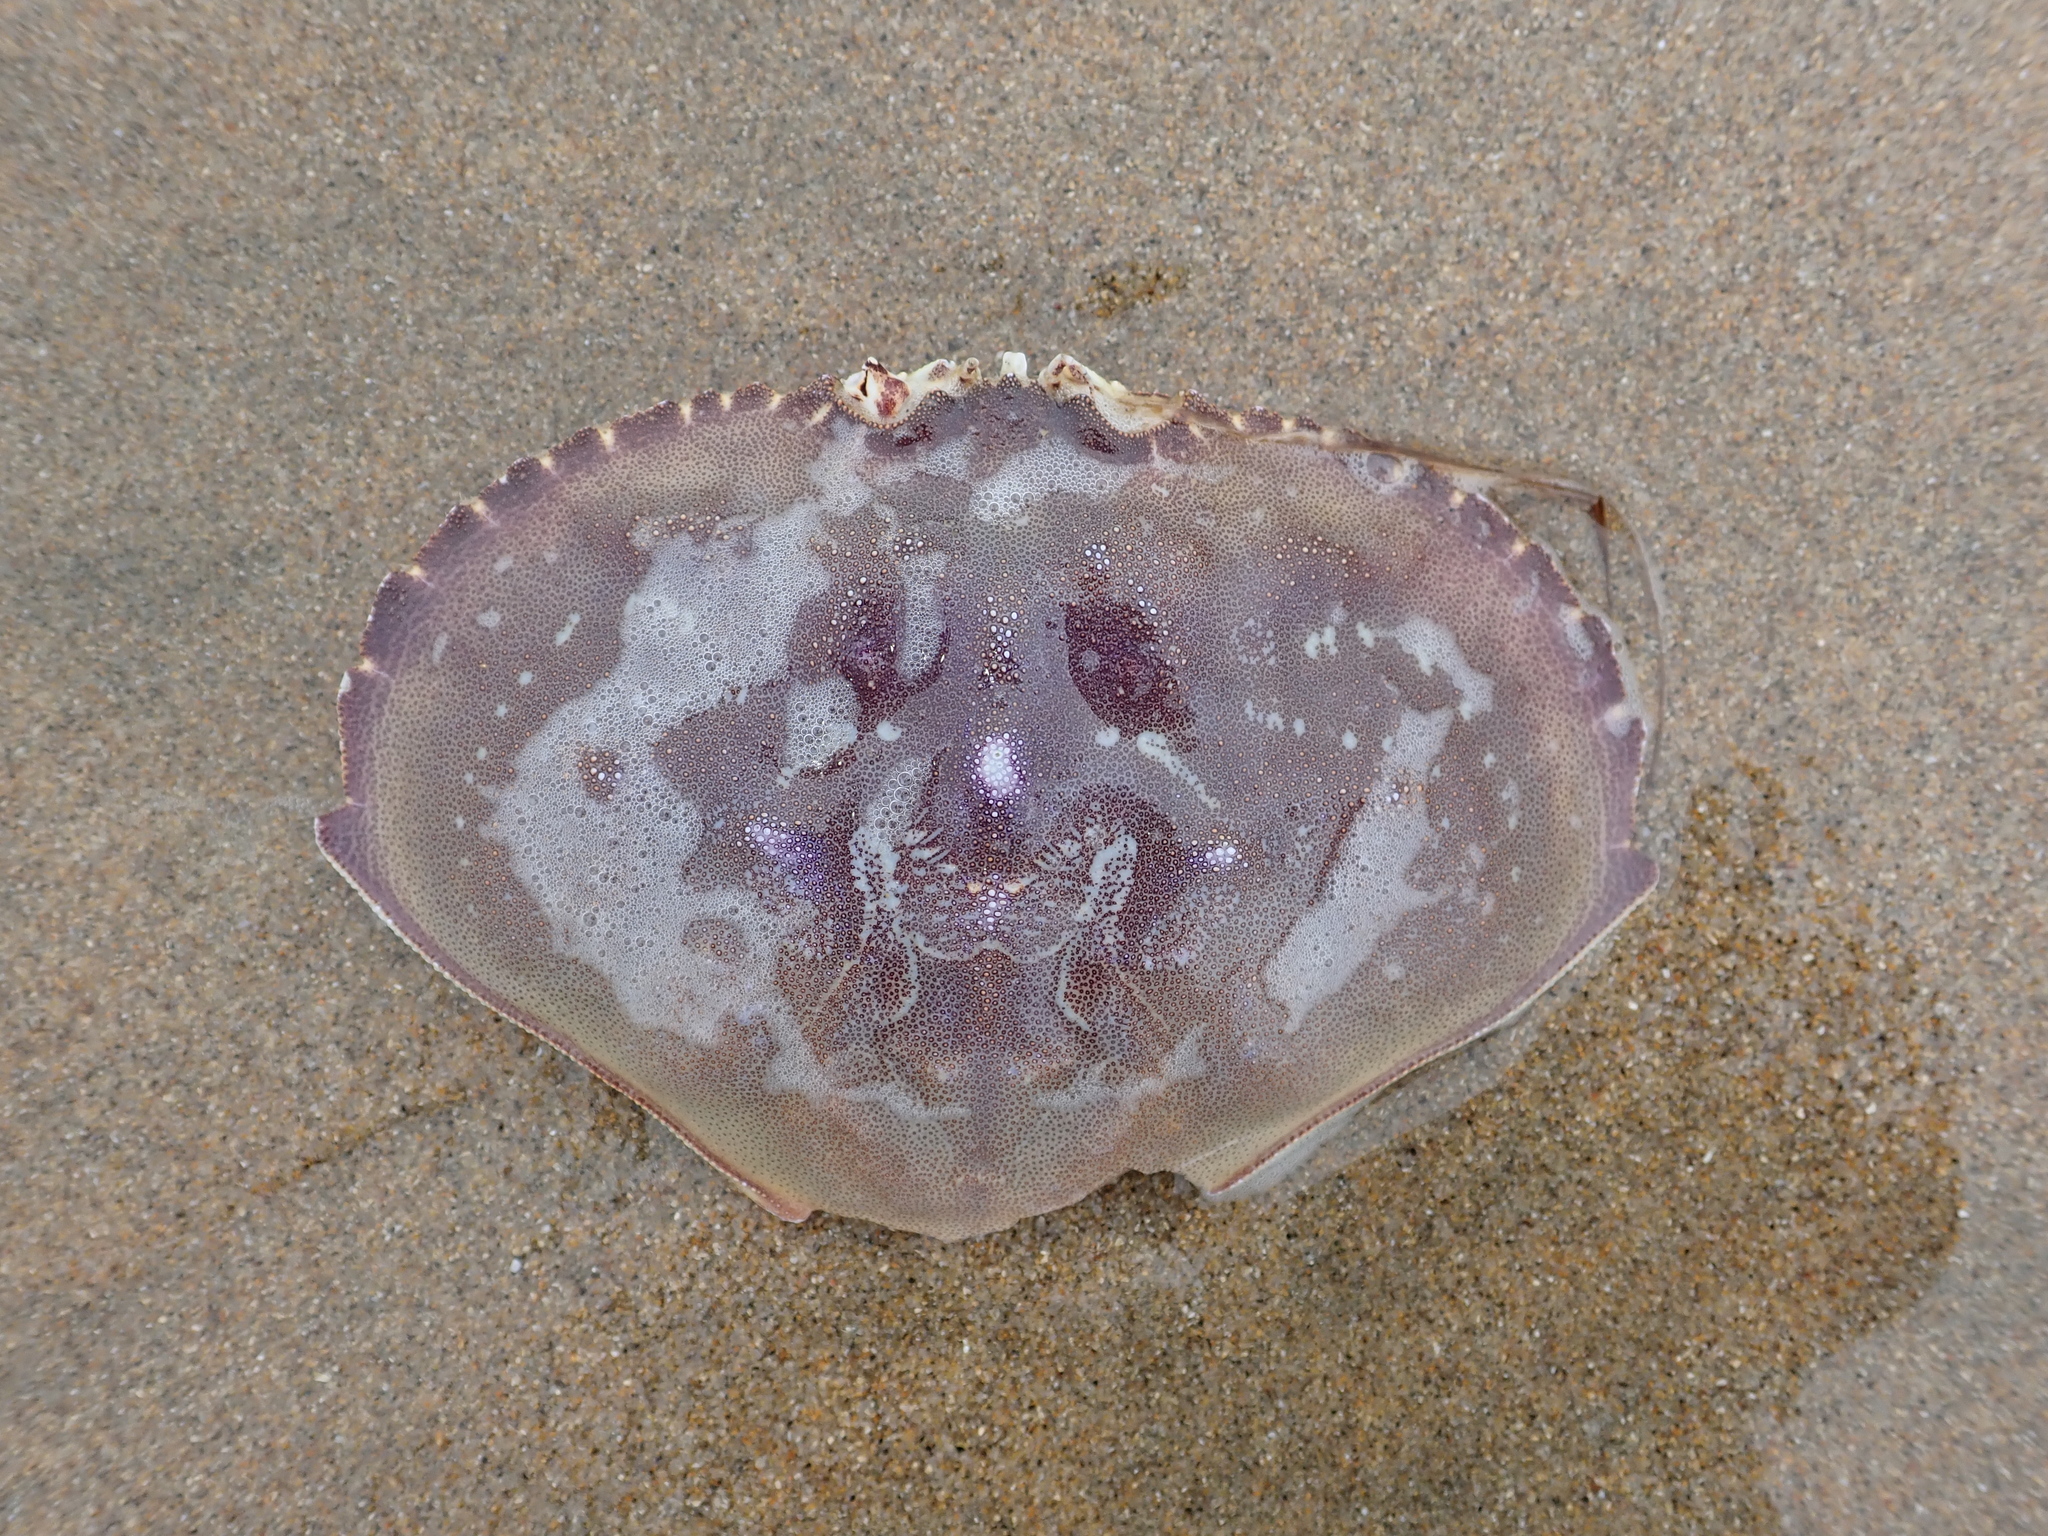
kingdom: Animalia
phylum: Arthropoda
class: Malacostraca
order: Decapoda
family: Cancridae
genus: Metacarcinus
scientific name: Metacarcinus magister
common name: Californian crab
